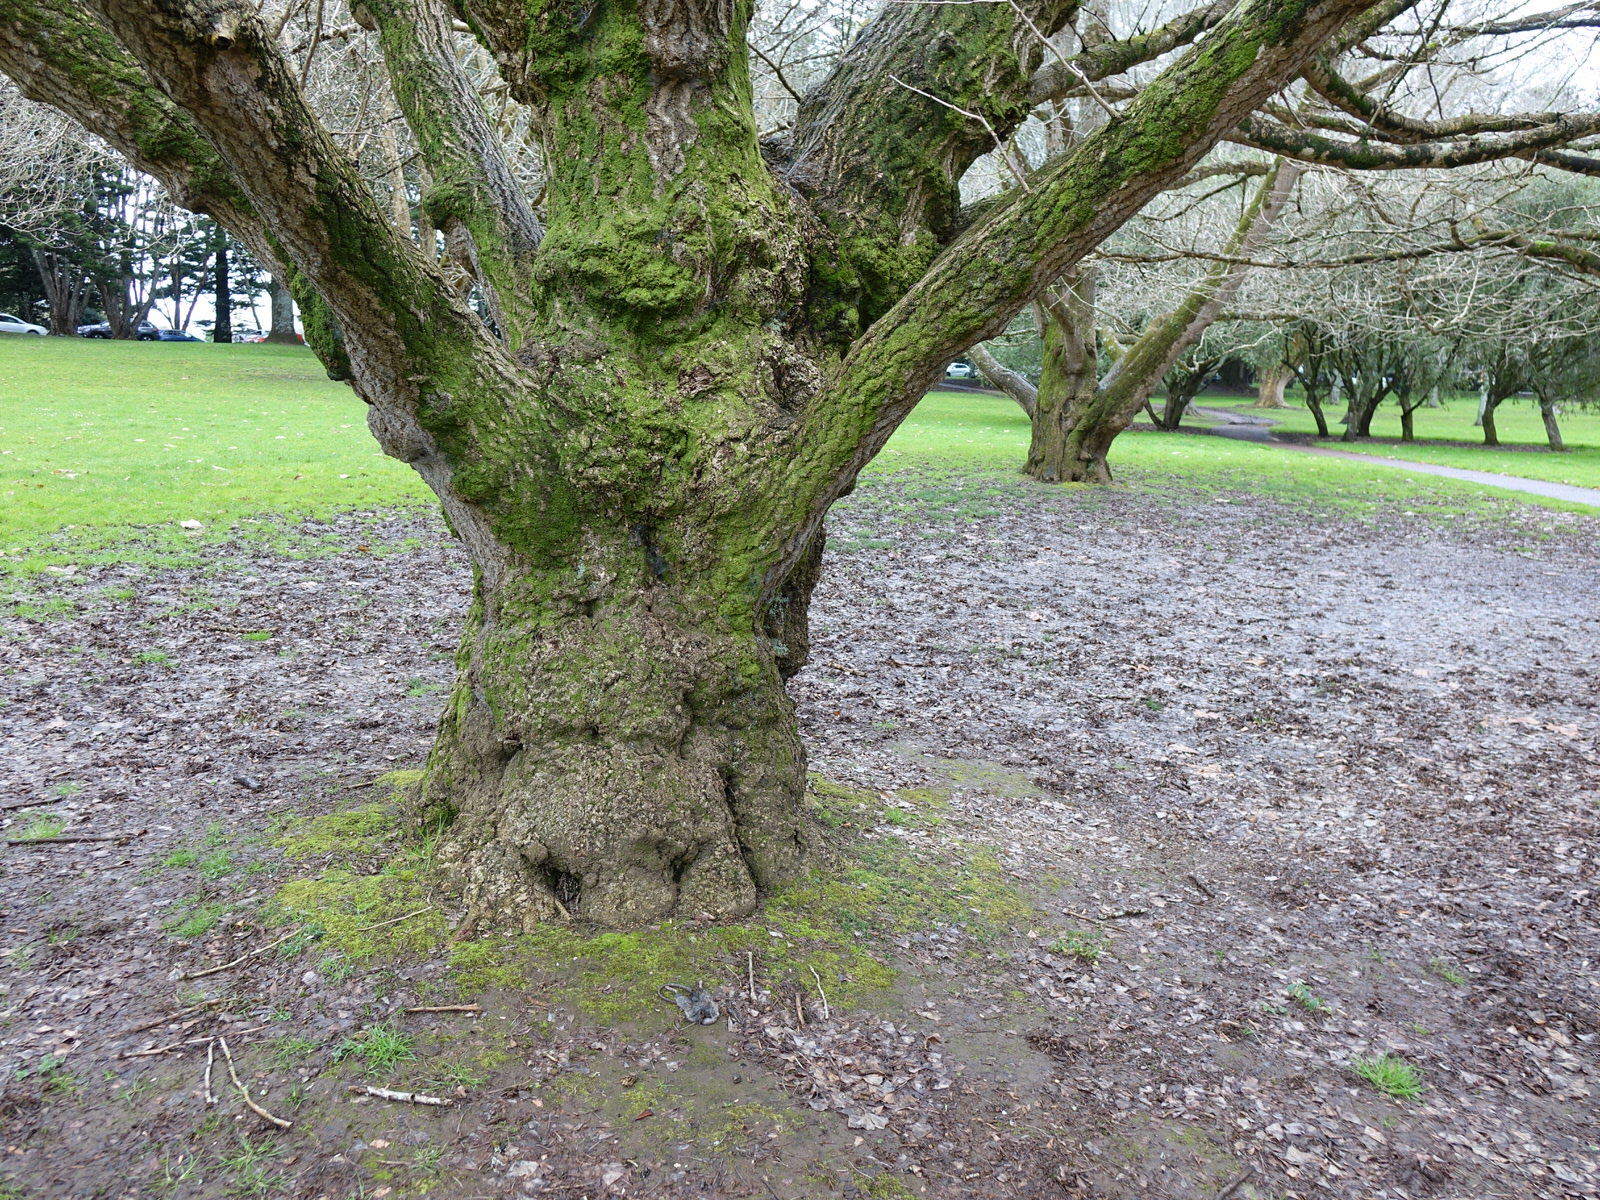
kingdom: Animalia
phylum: Chordata
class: Mammalia
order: Rodentia
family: Muridae
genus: Rattus
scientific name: Rattus rattus
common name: Black rat
